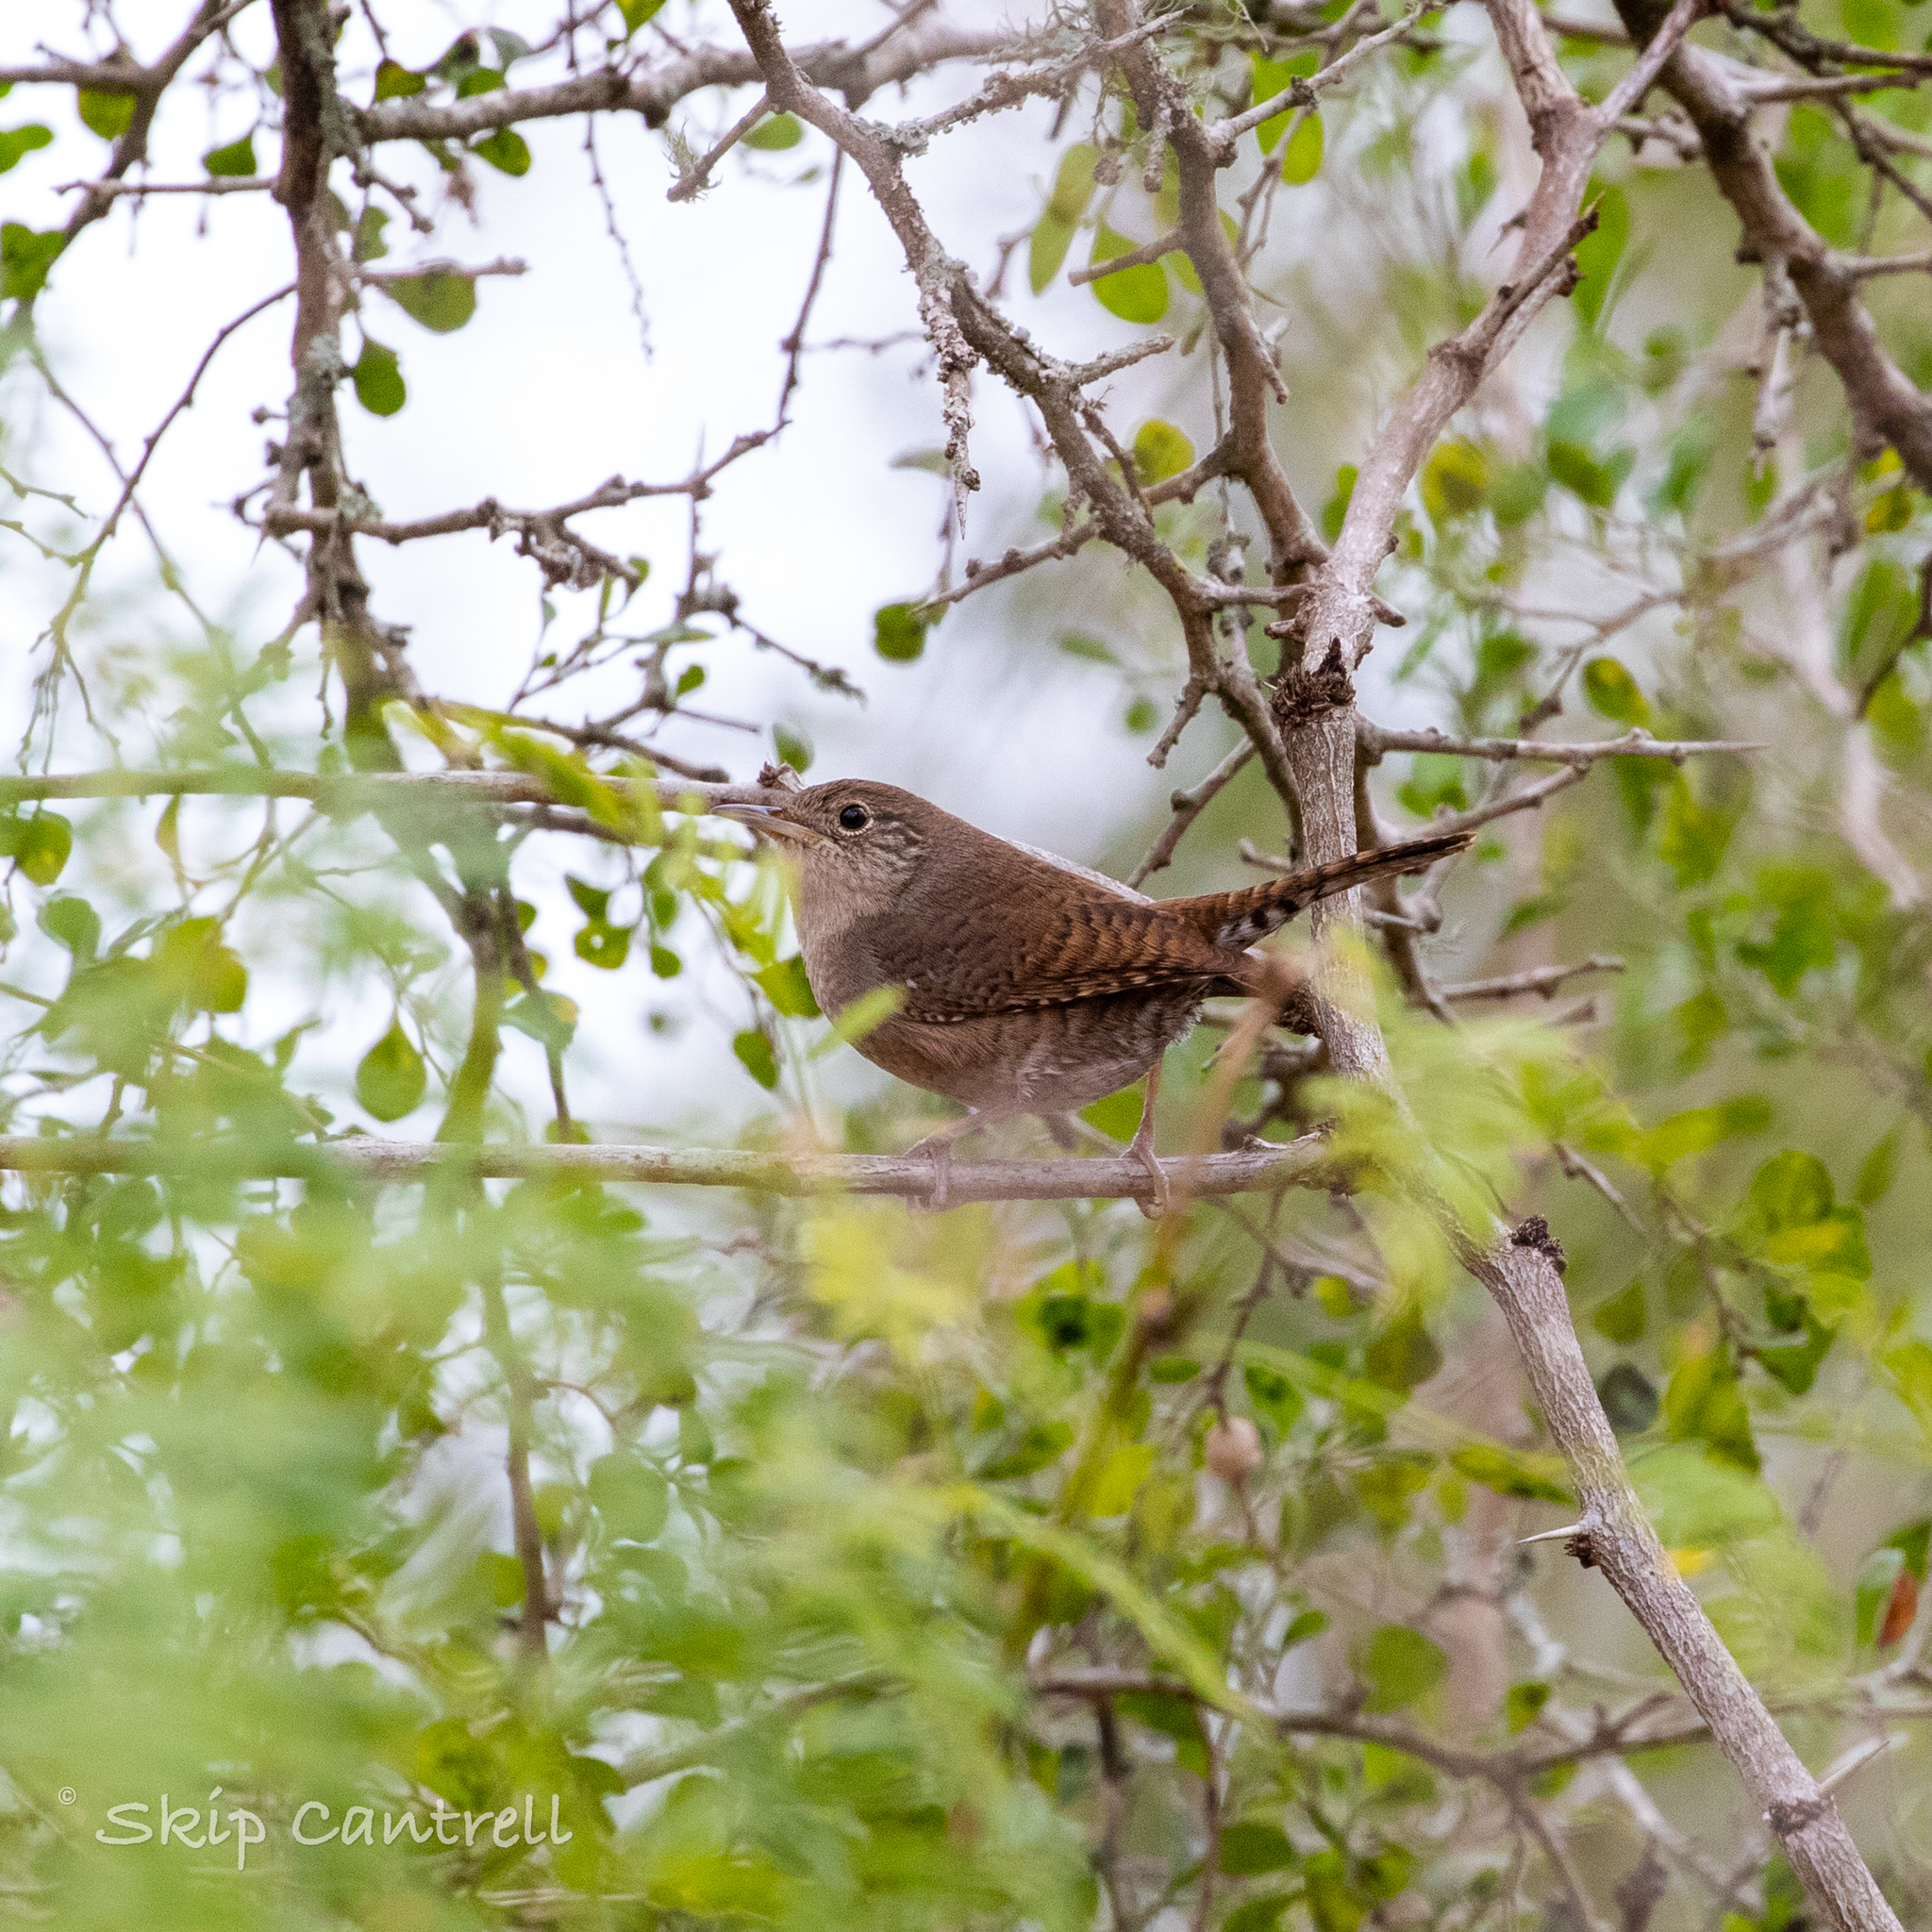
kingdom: Animalia
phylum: Chordata
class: Aves
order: Passeriformes
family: Troglodytidae
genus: Troglodytes
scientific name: Troglodytes aedon
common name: House wren
